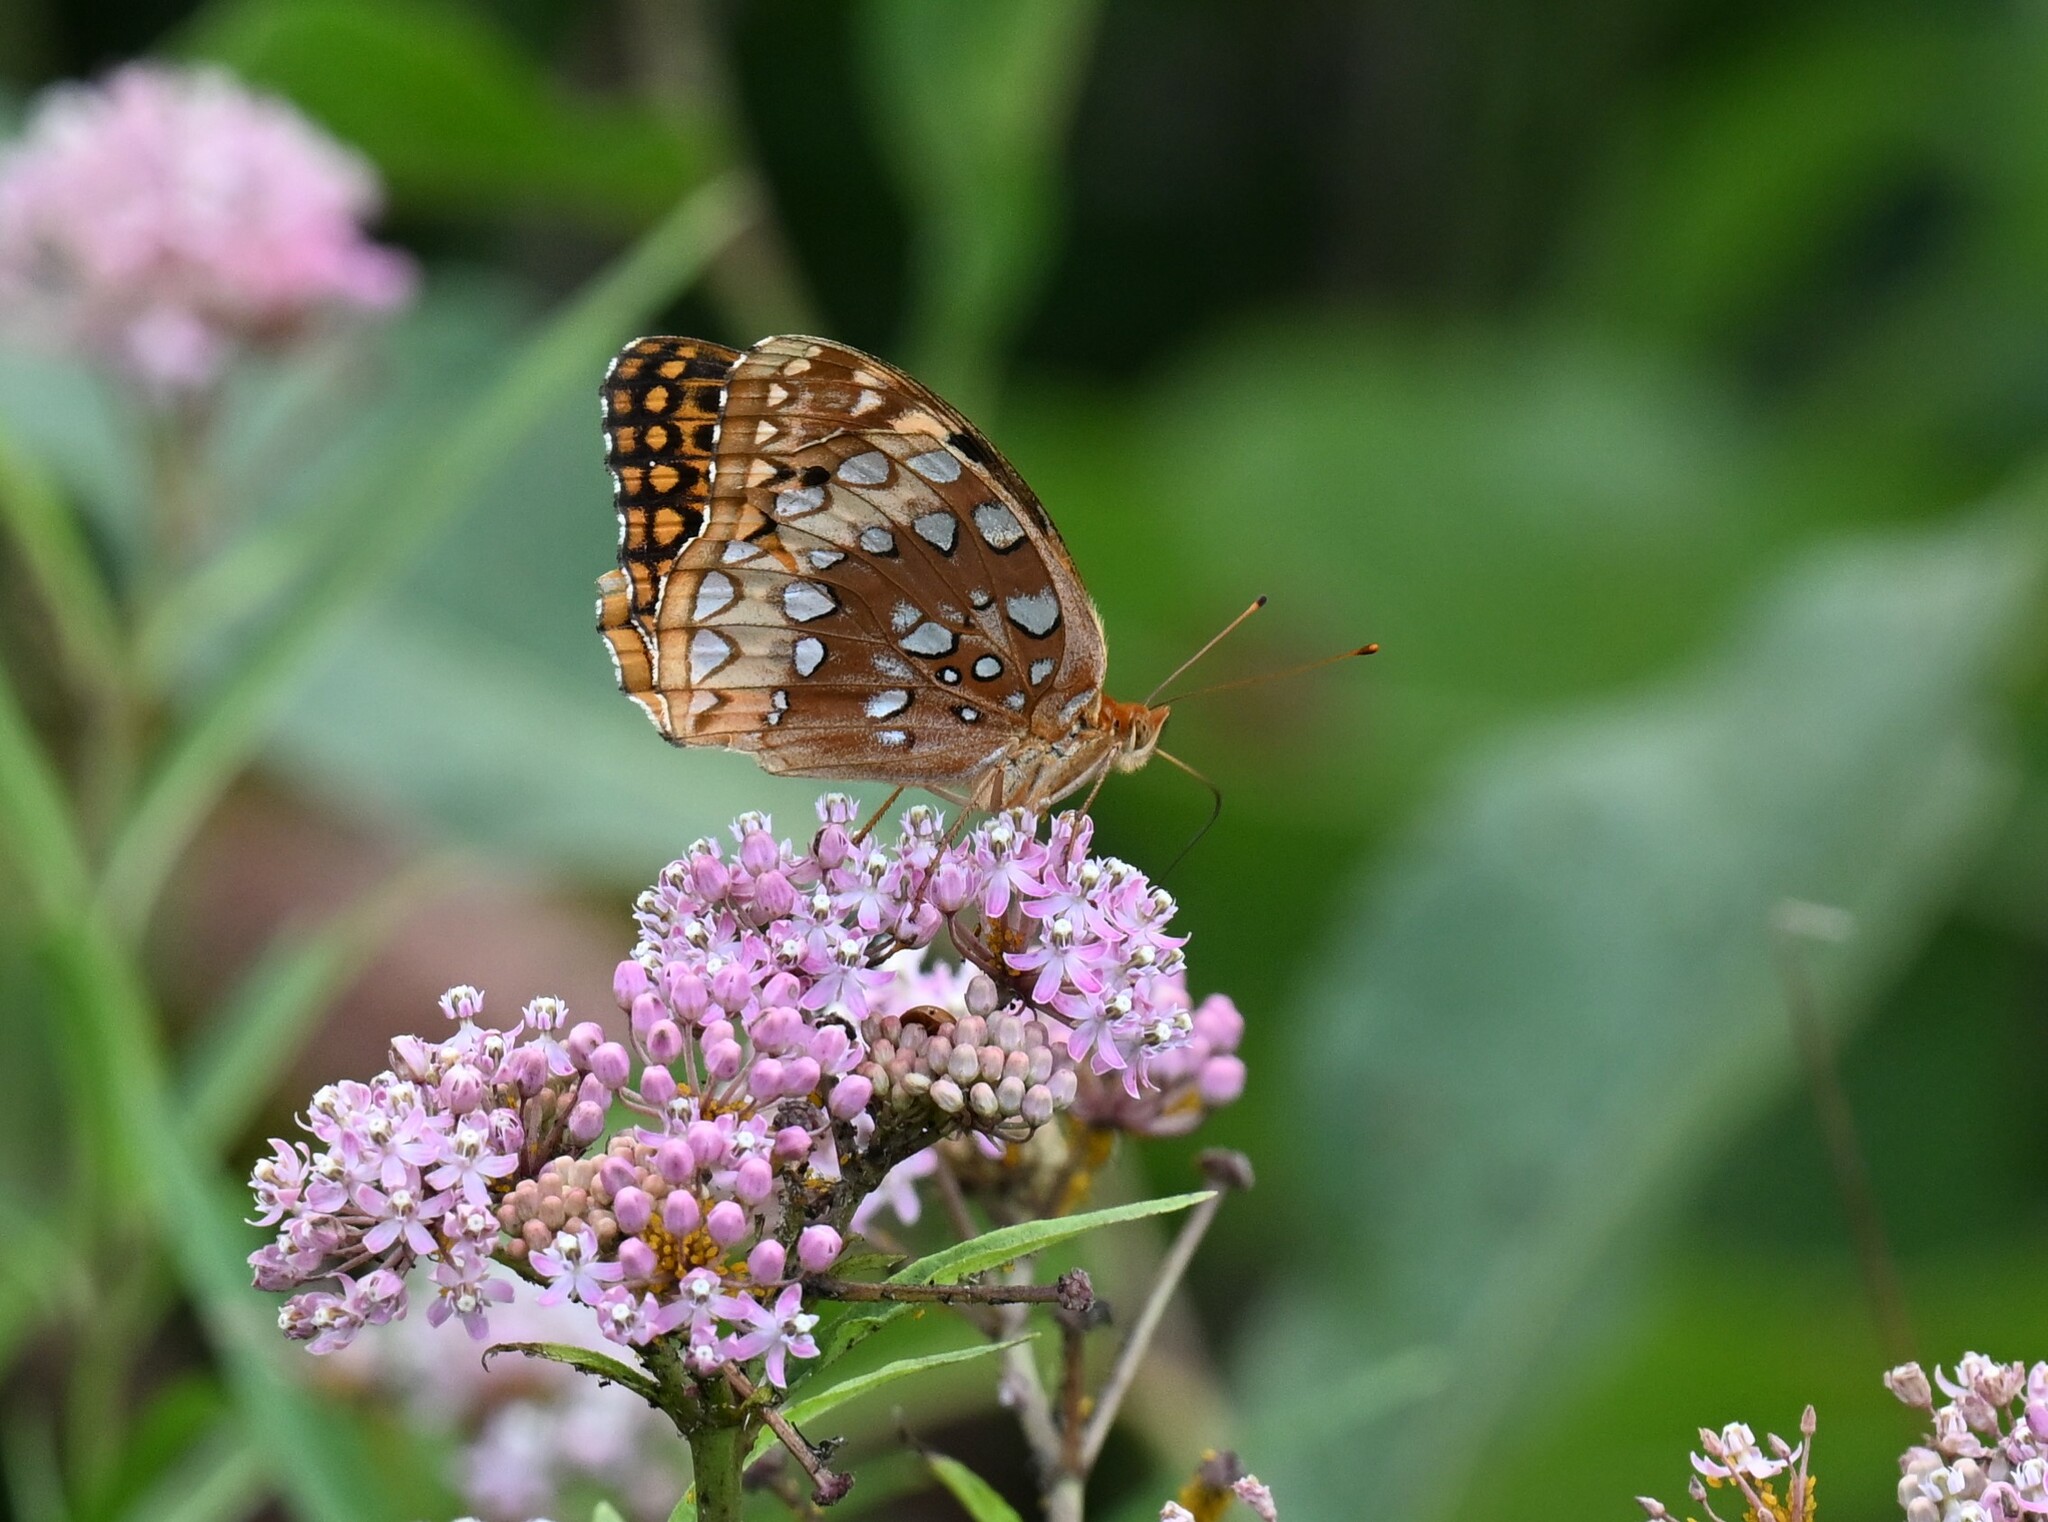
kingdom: Animalia
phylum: Arthropoda
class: Insecta
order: Lepidoptera
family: Nymphalidae
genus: Speyeria
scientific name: Speyeria cybele
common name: Great spangled fritillary
